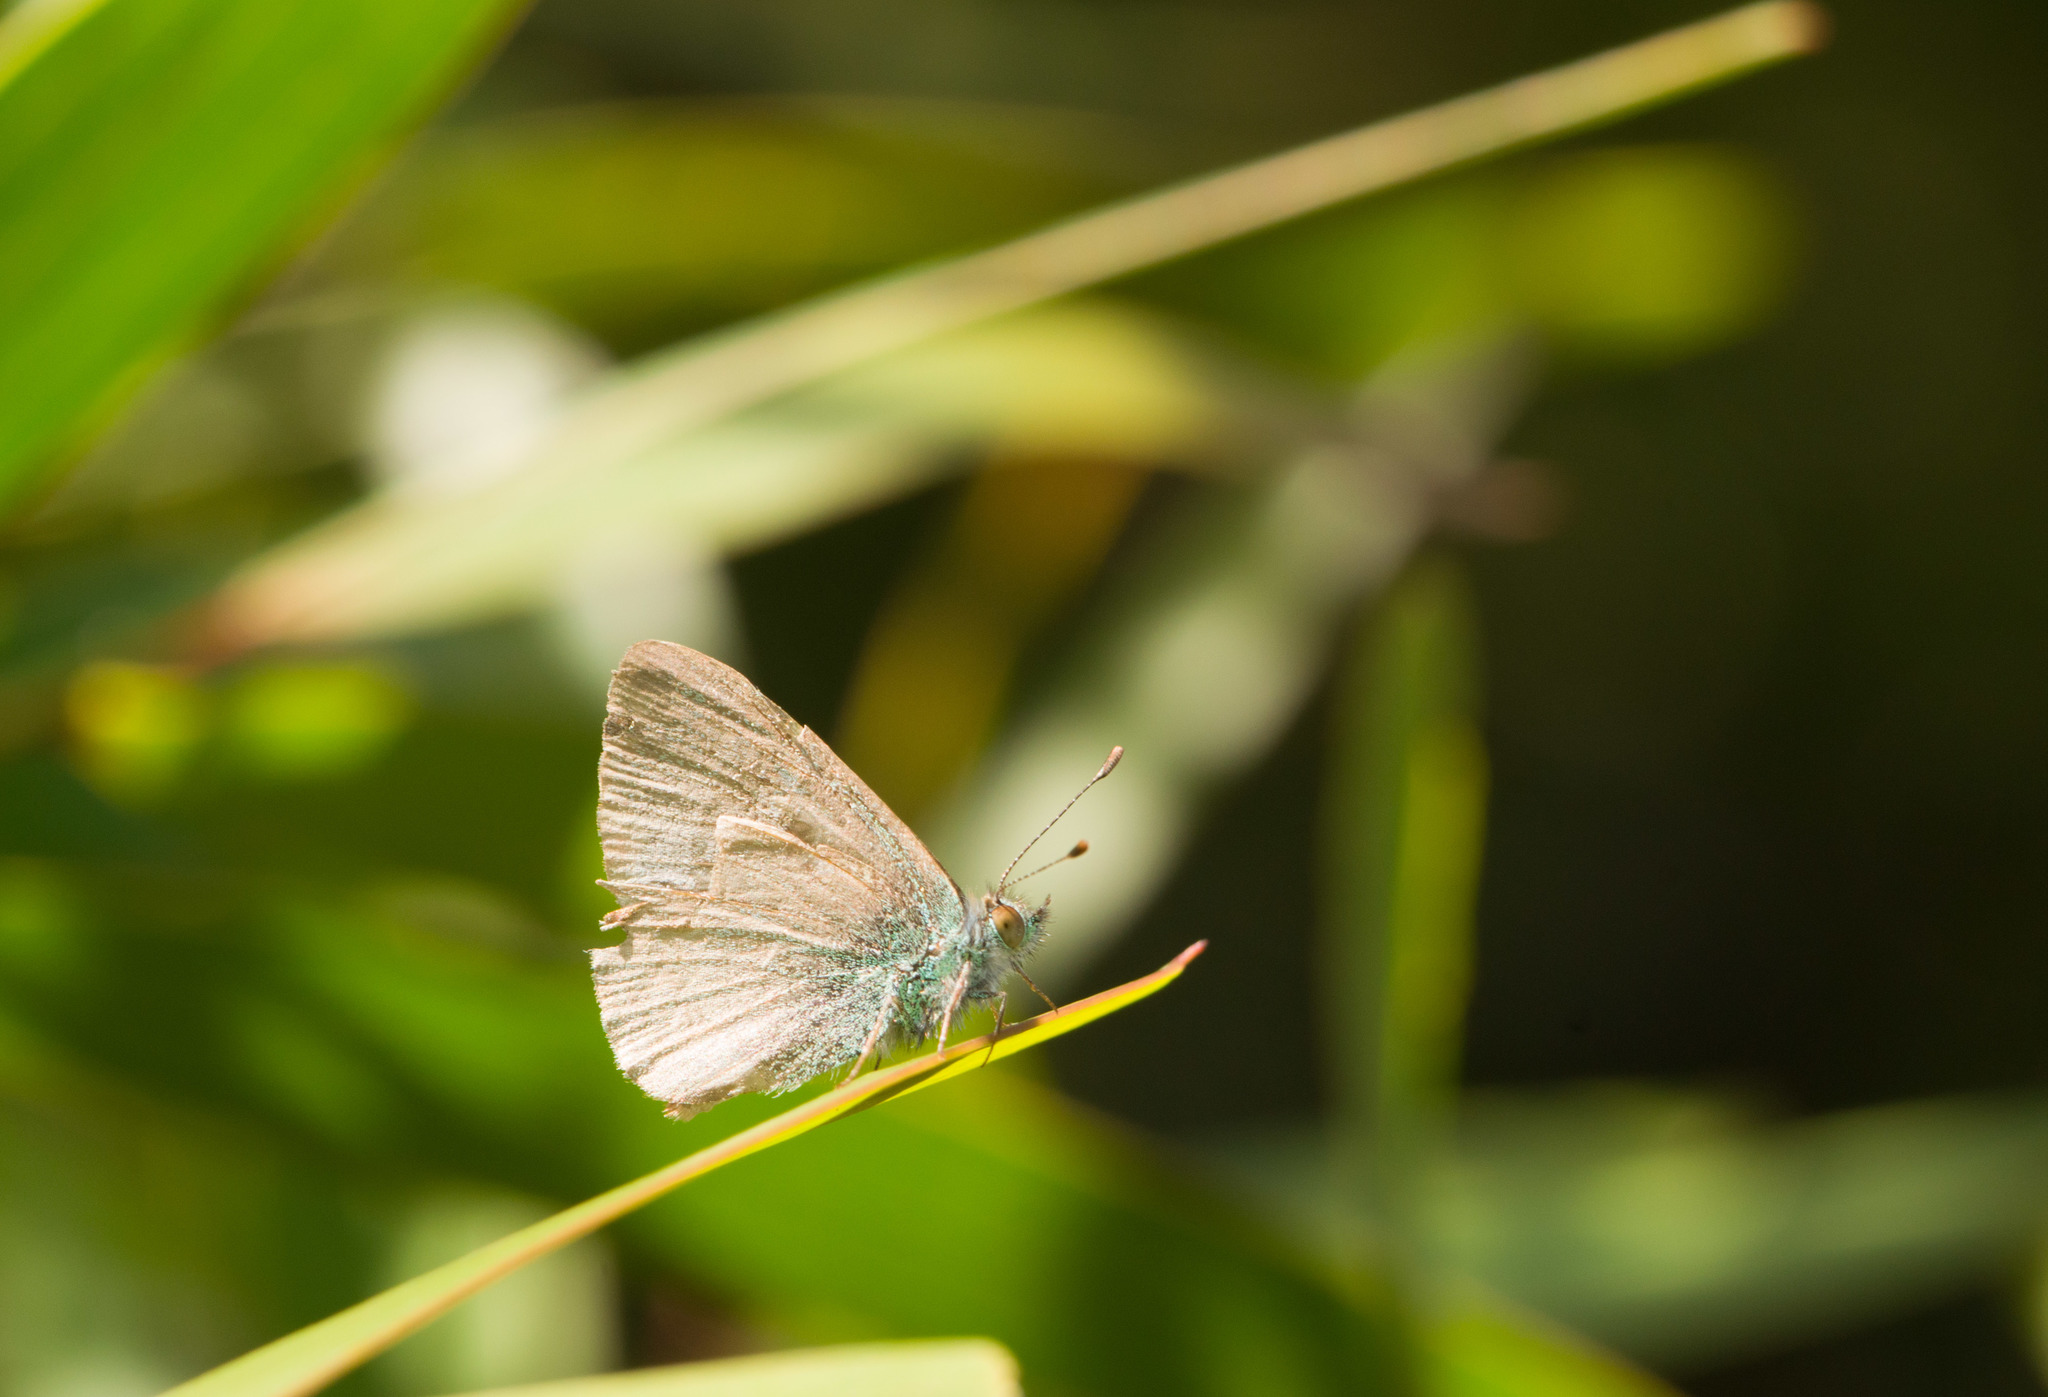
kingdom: Animalia
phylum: Arthropoda
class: Insecta
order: Lepidoptera
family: Lycaenidae
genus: Udara
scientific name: Udara blackburni
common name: Blackburn's blue
